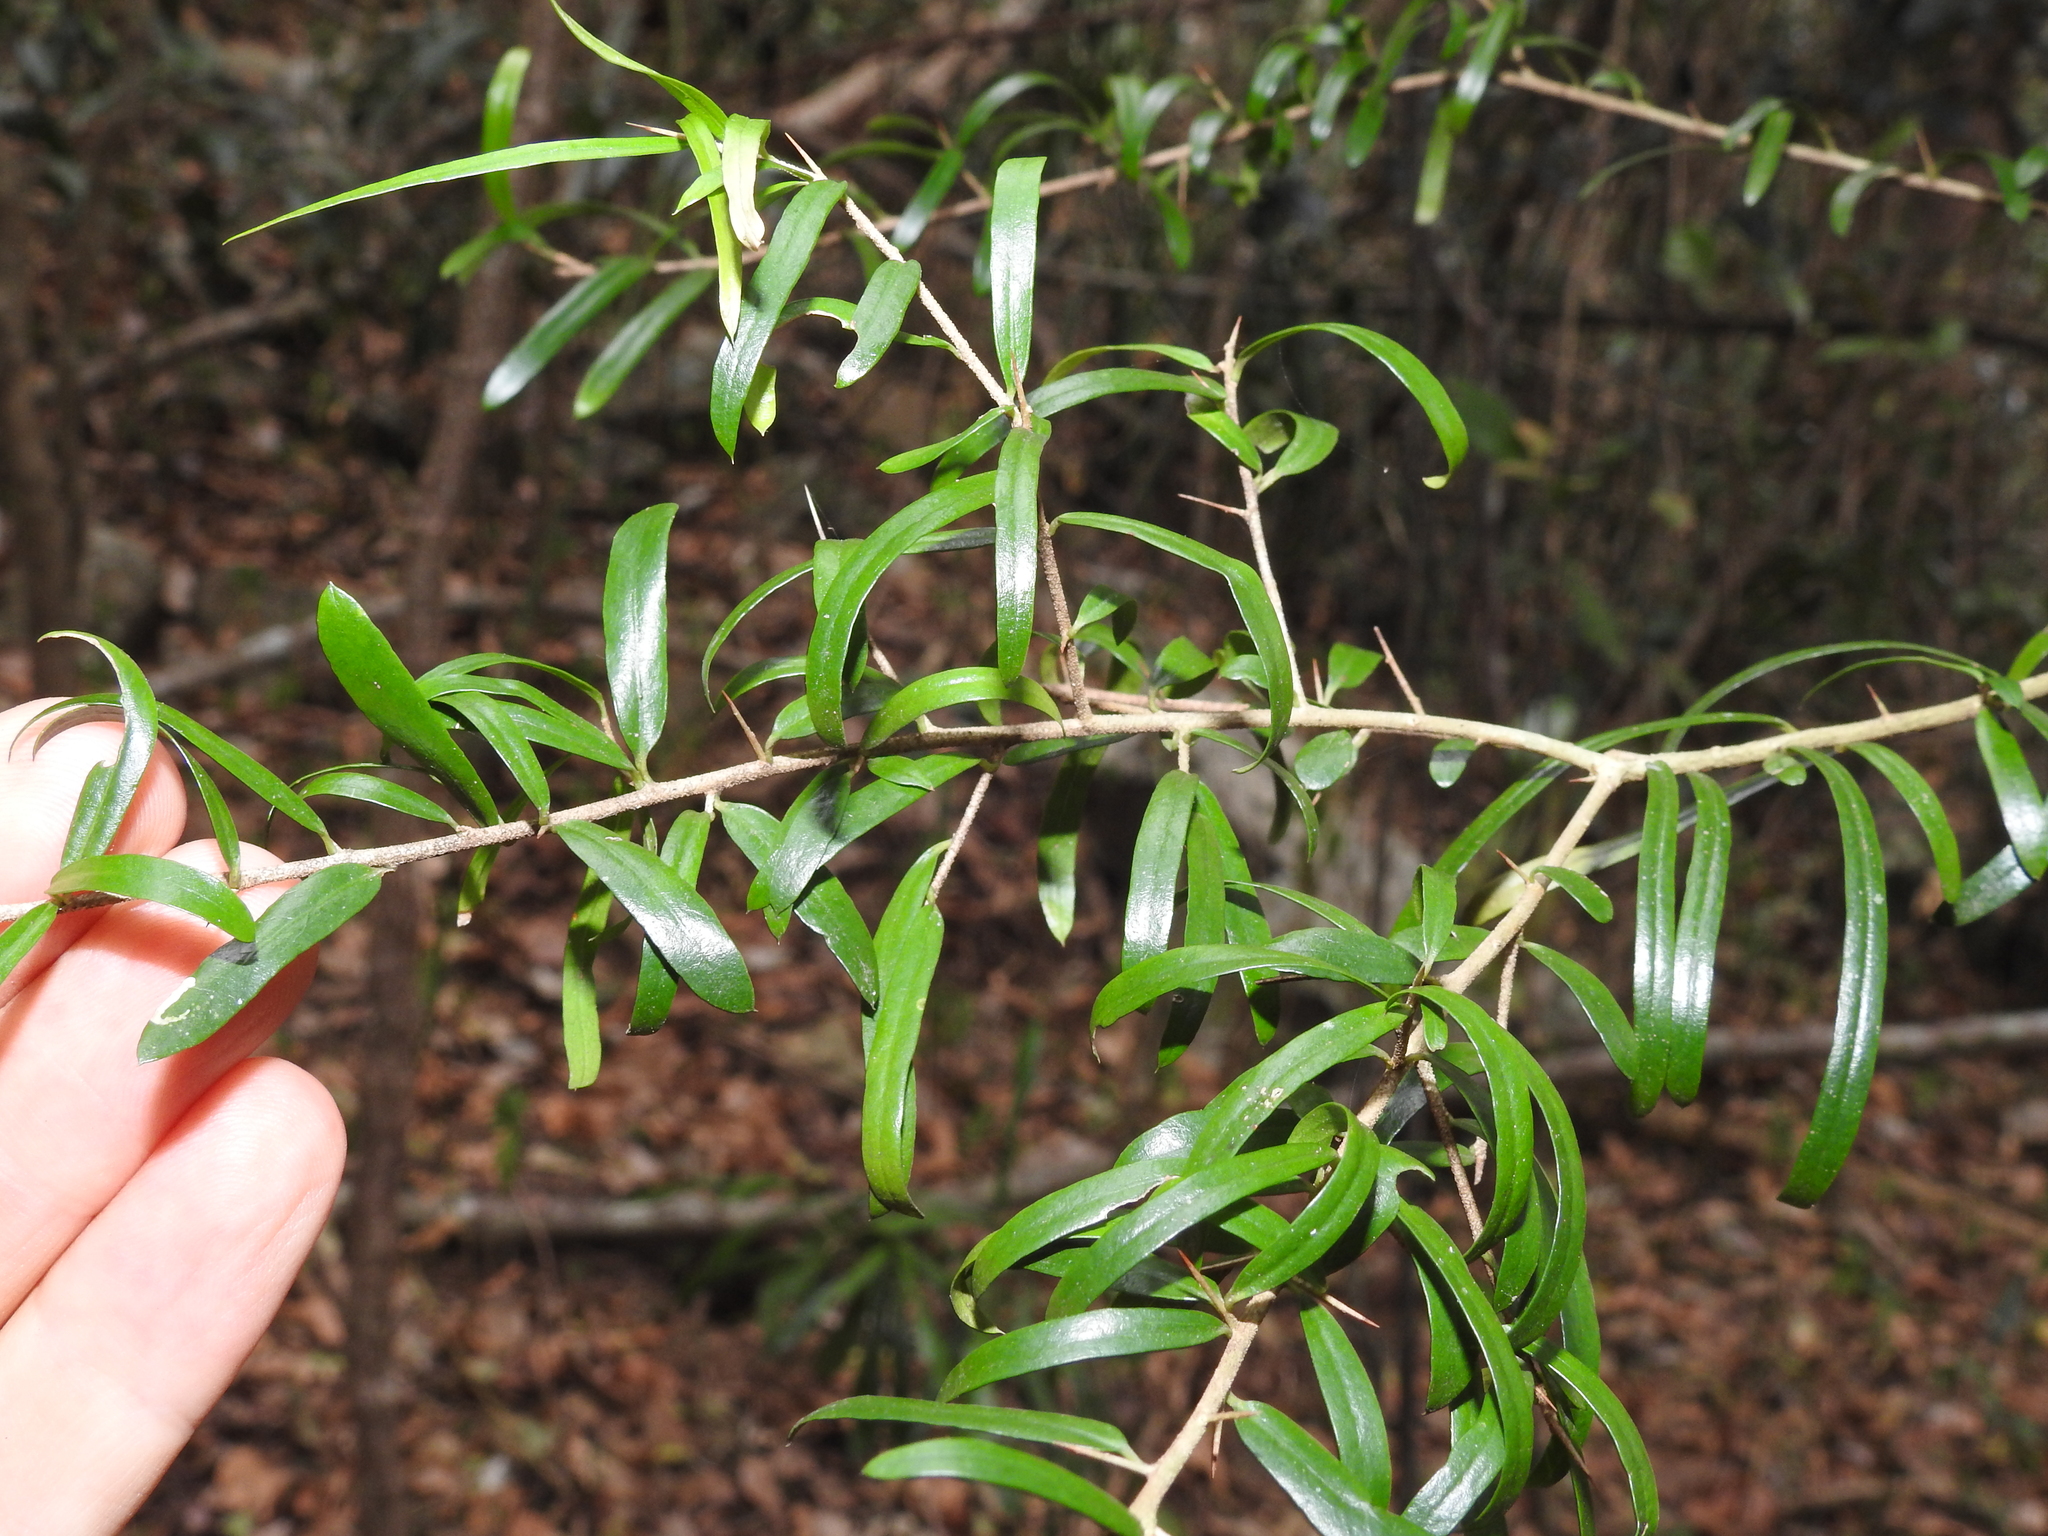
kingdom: Plantae
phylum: Tracheophyta
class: Magnoliopsida
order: Apiales
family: Pittosporaceae
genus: Pittosporum
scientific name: Pittosporum viscidum
